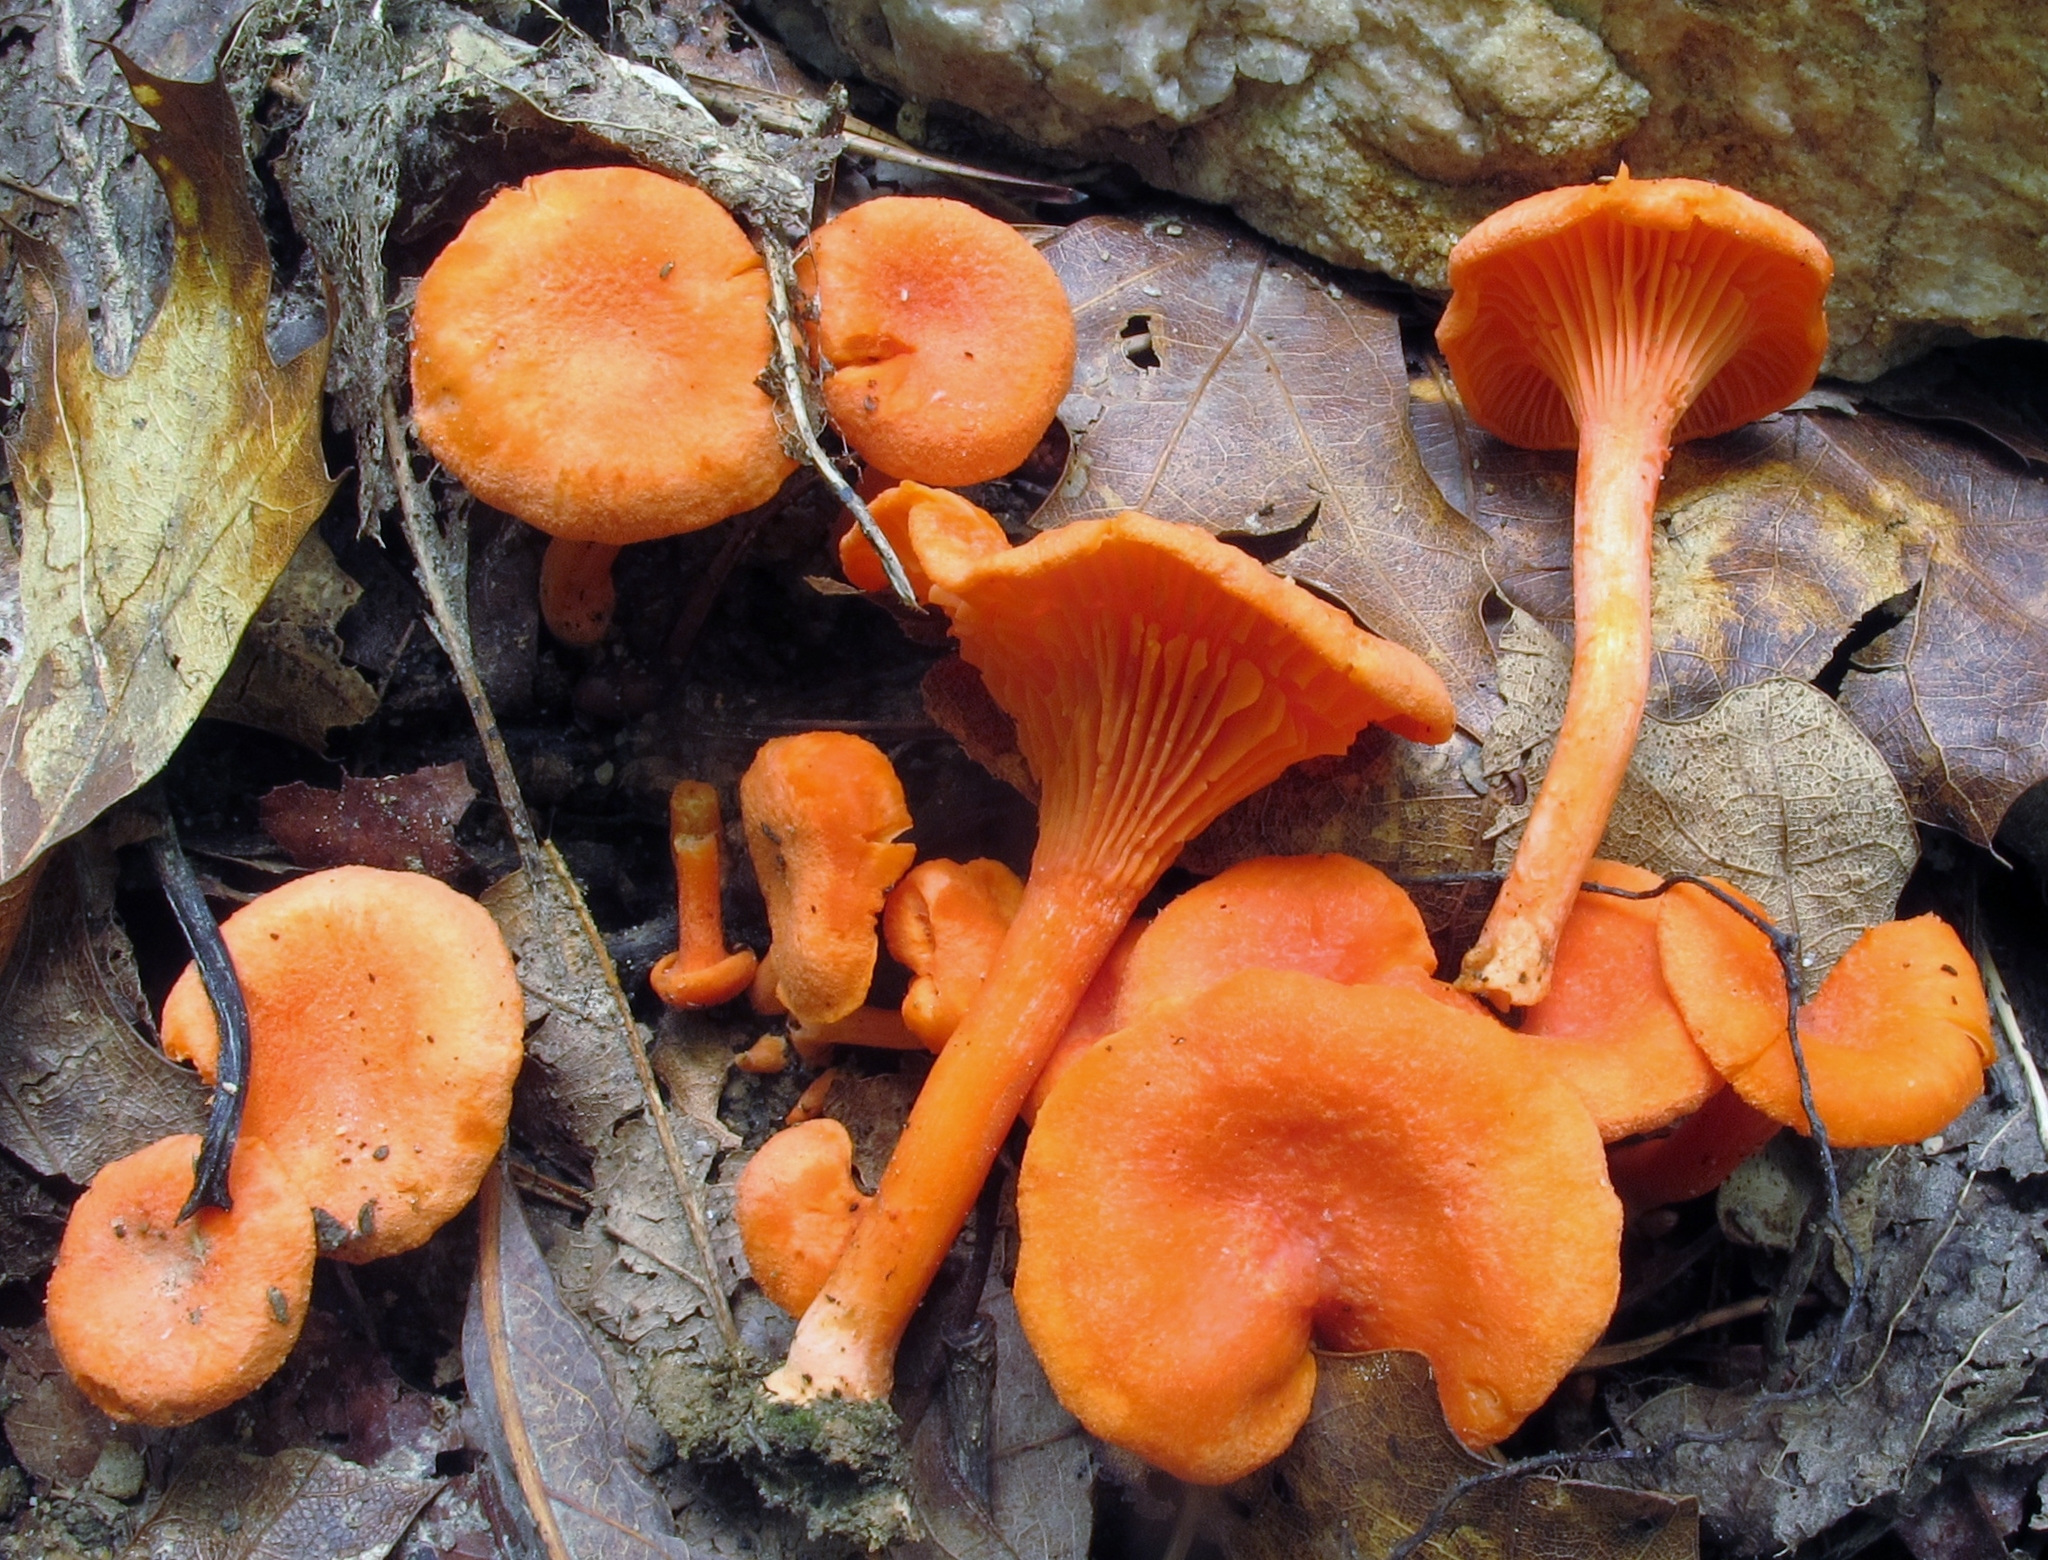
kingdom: Fungi
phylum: Basidiomycota
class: Agaricomycetes
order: Cantharellales
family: Hydnaceae
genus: Cantharellus
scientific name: Cantharellus cinnabarinus
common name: Cinnabar chanterelle
